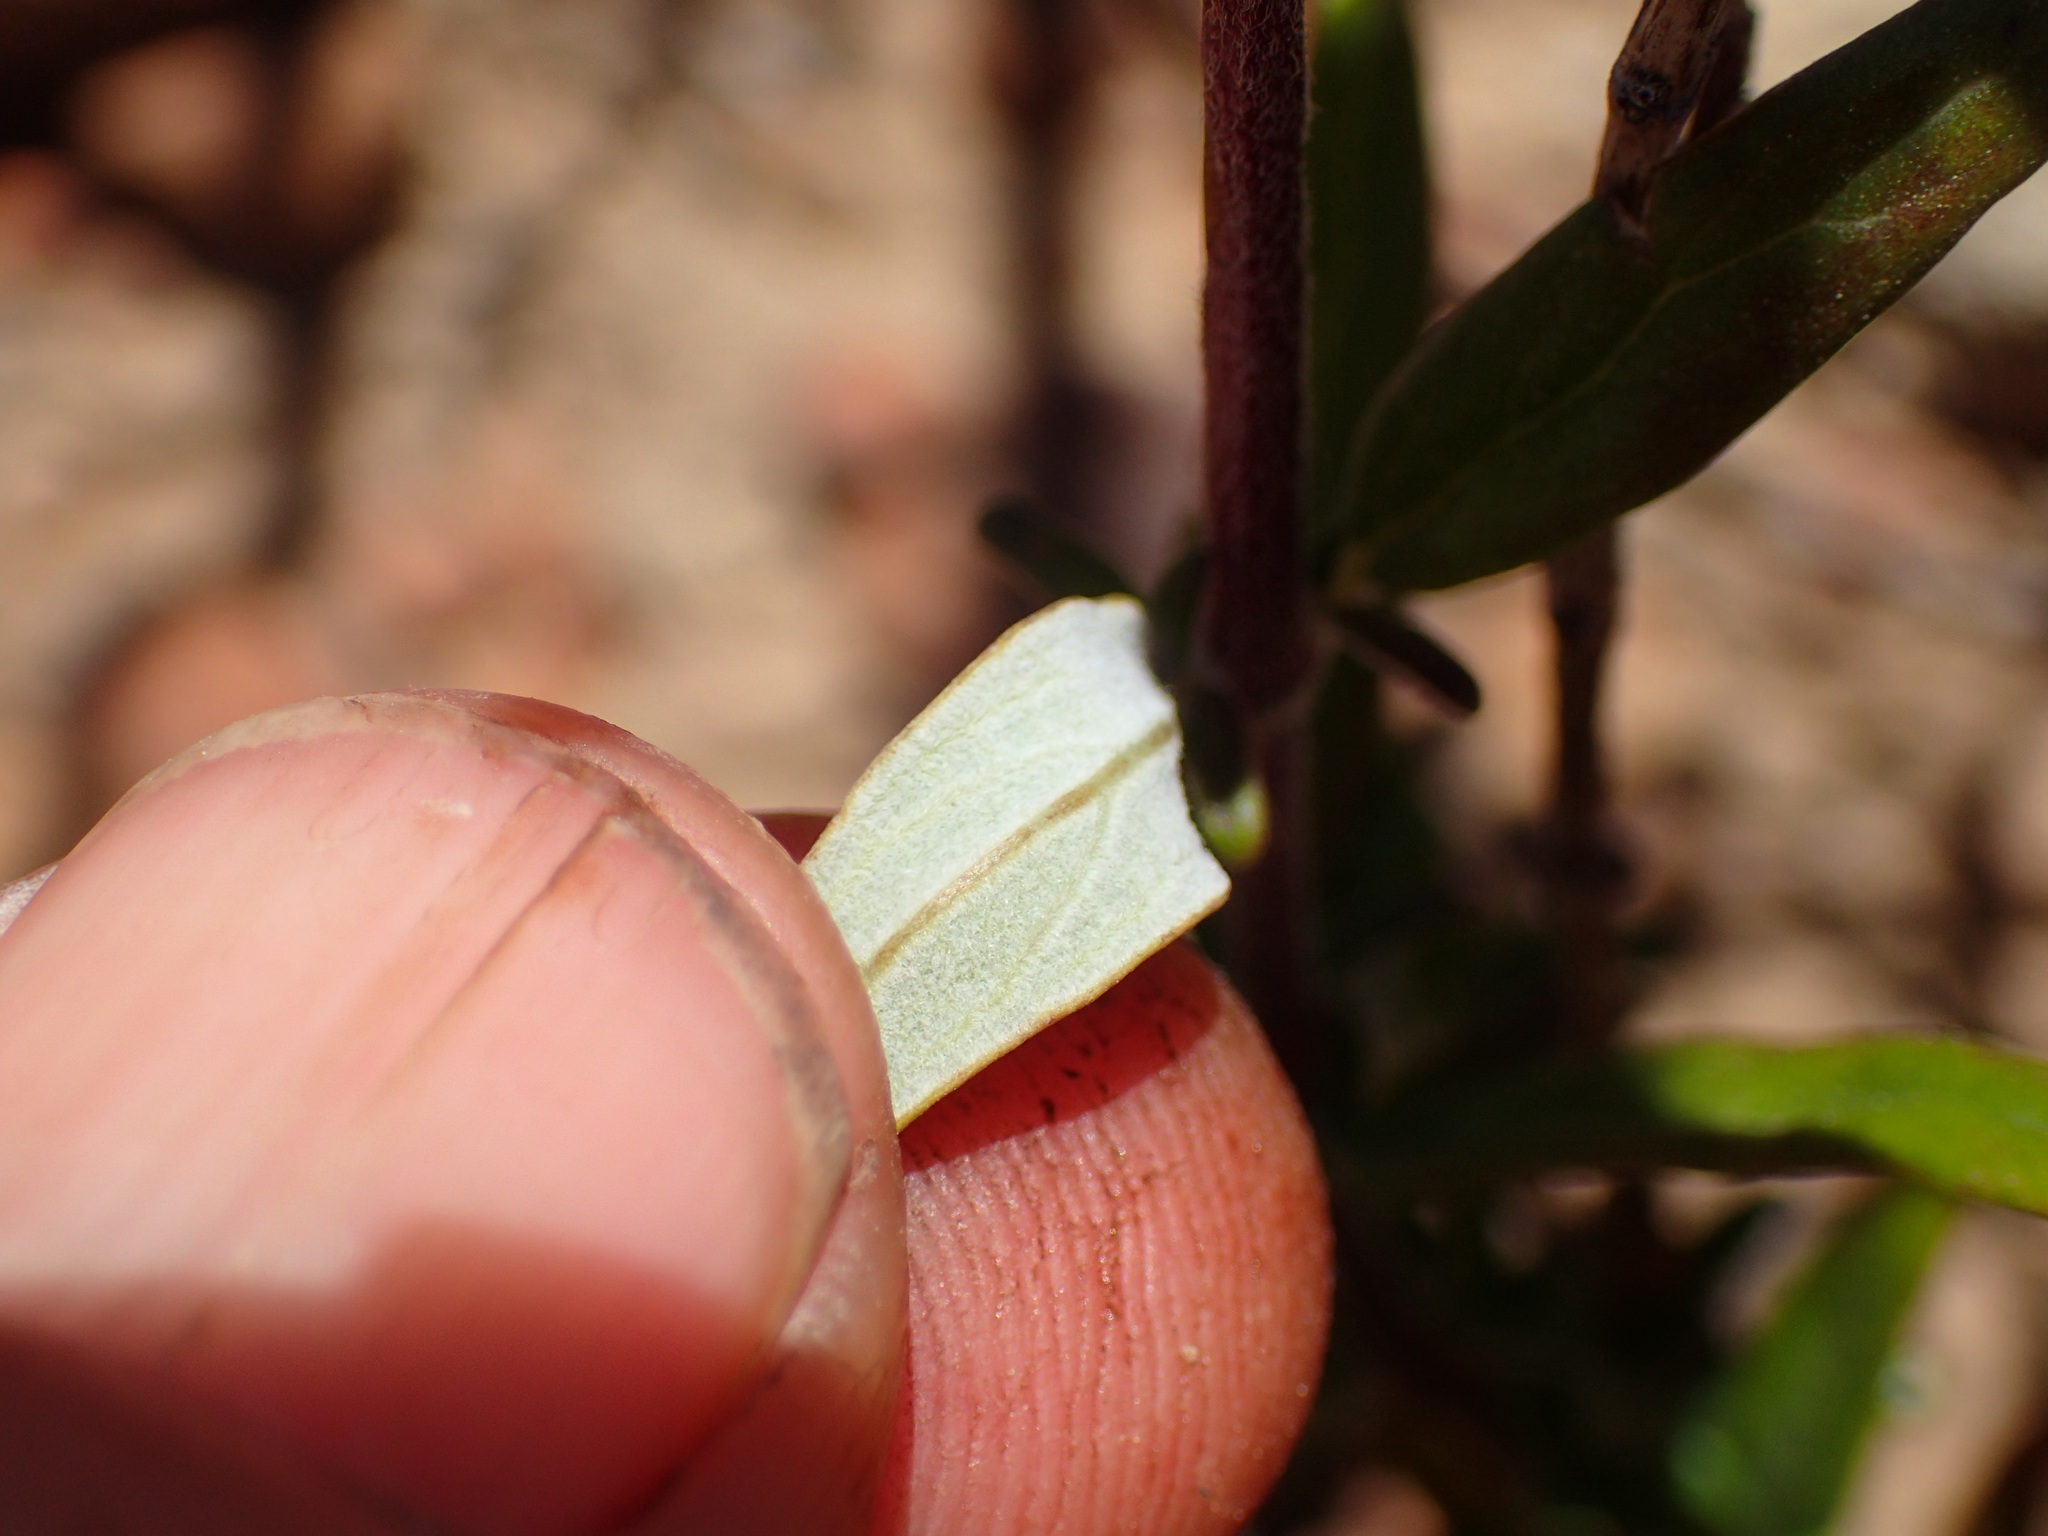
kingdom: Plantae
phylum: Tracheophyta
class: Magnoliopsida
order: Lamiales
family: Lamiaceae
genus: Monardella
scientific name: Monardella hypoleuca
